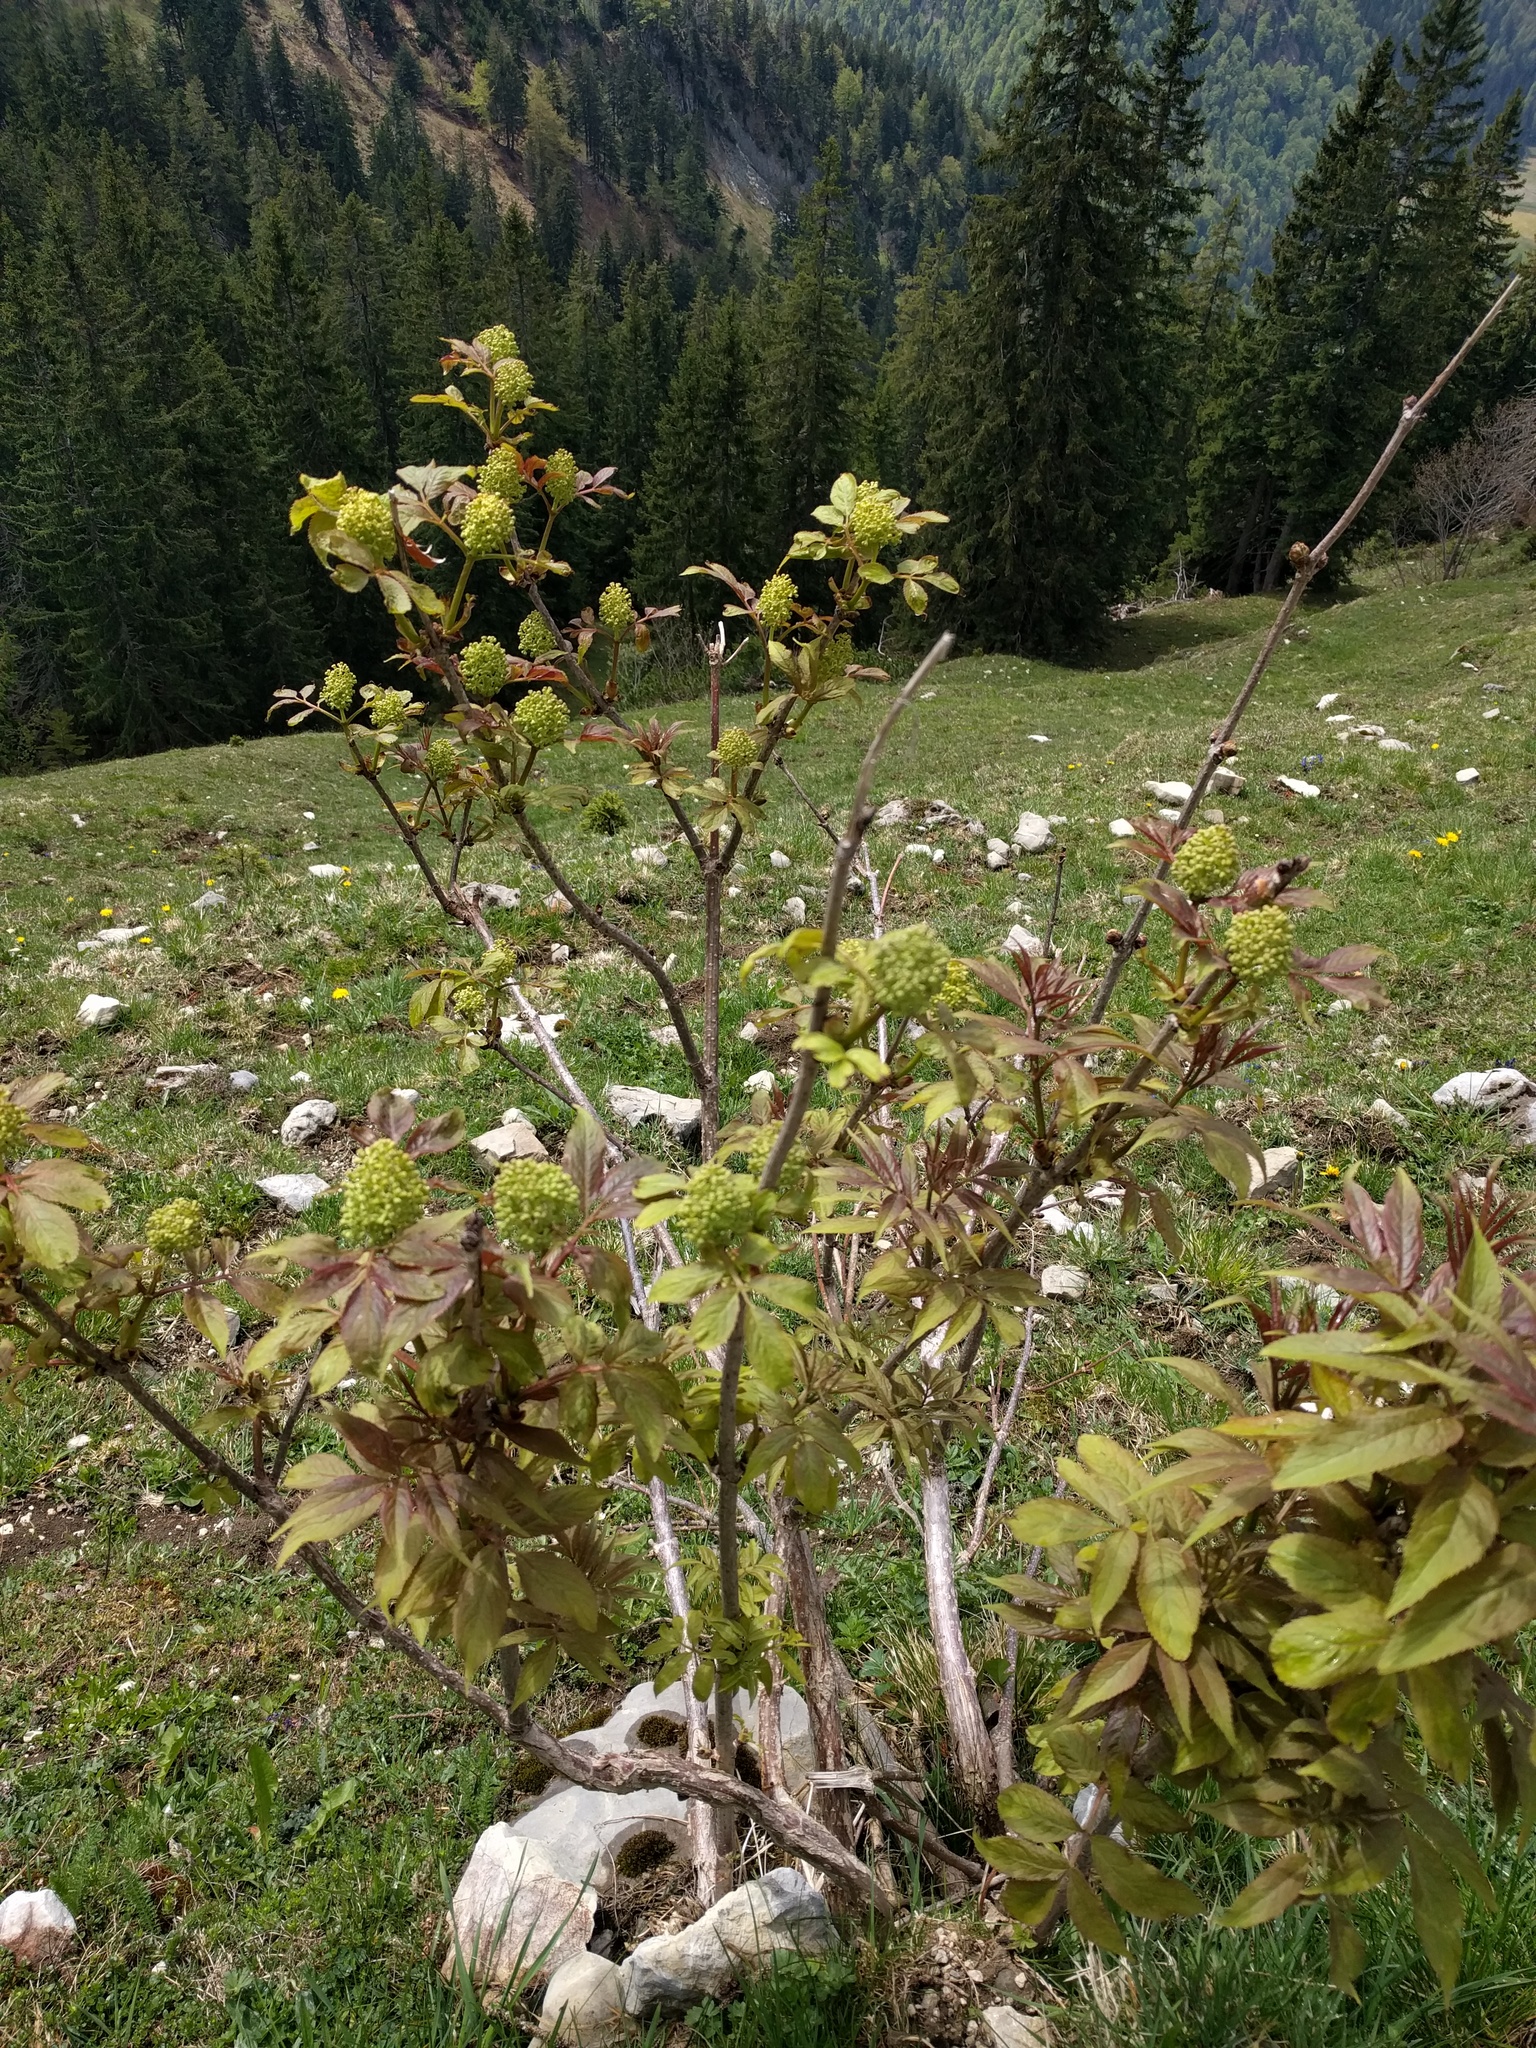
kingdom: Plantae
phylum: Tracheophyta
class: Magnoliopsida
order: Dipsacales
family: Viburnaceae
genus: Sambucus
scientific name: Sambucus racemosa
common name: Red-berried elder
